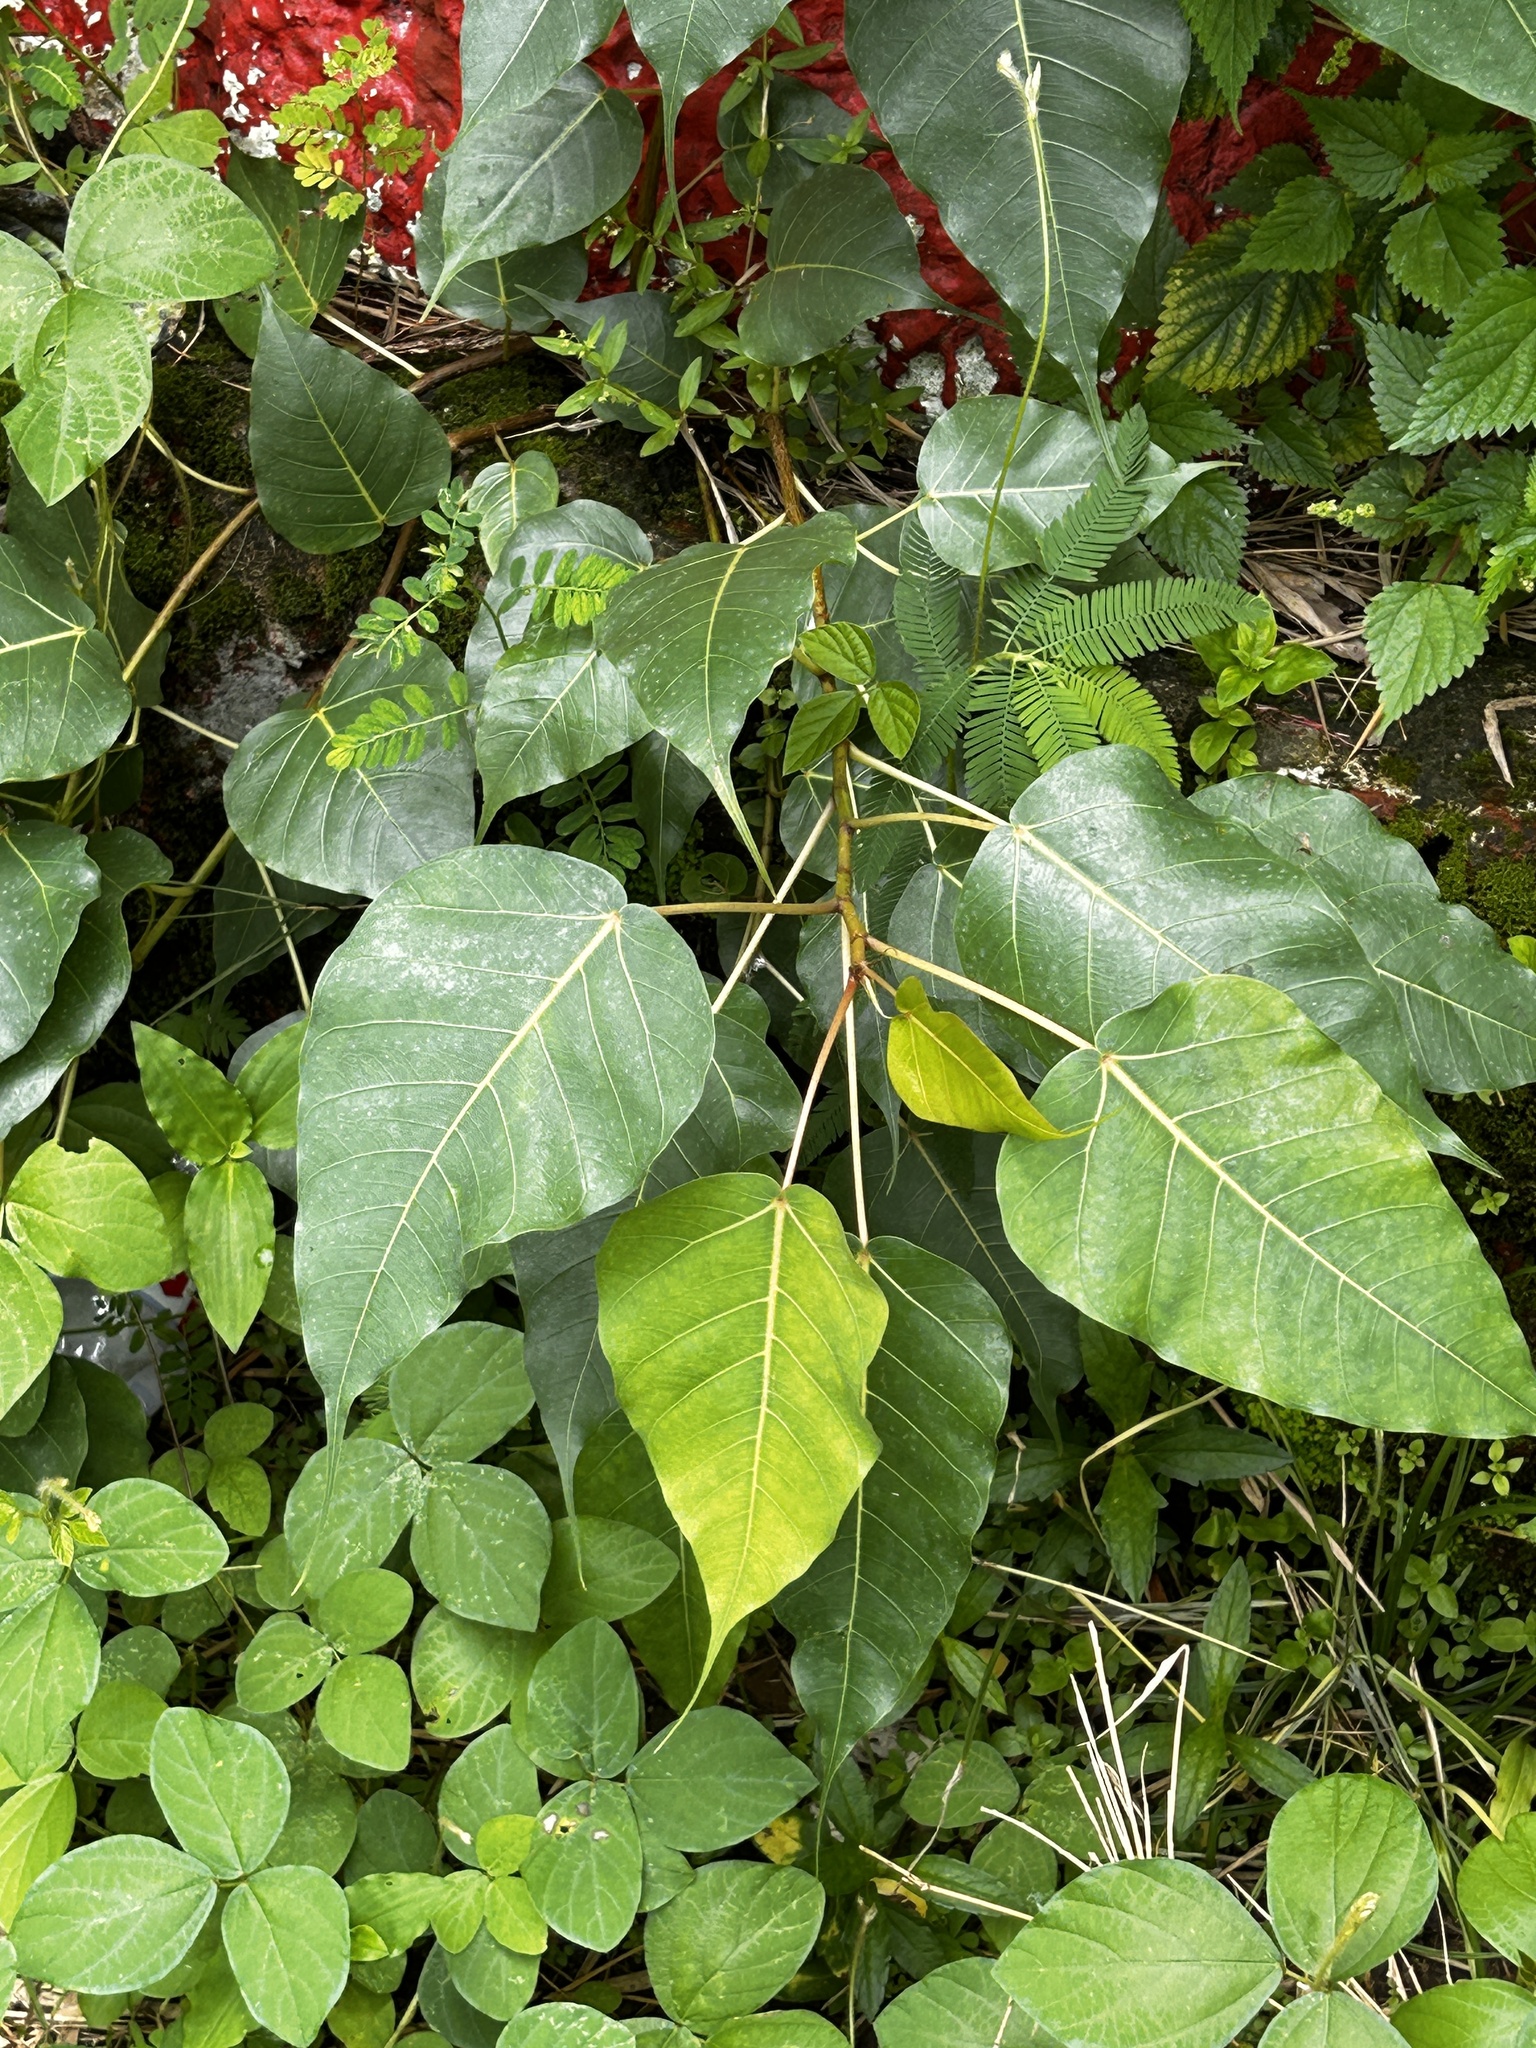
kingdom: Plantae
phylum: Tracheophyta
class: Magnoliopsida
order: Rosales
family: Moraceae
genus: Ficus
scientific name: Ficus rumphii
